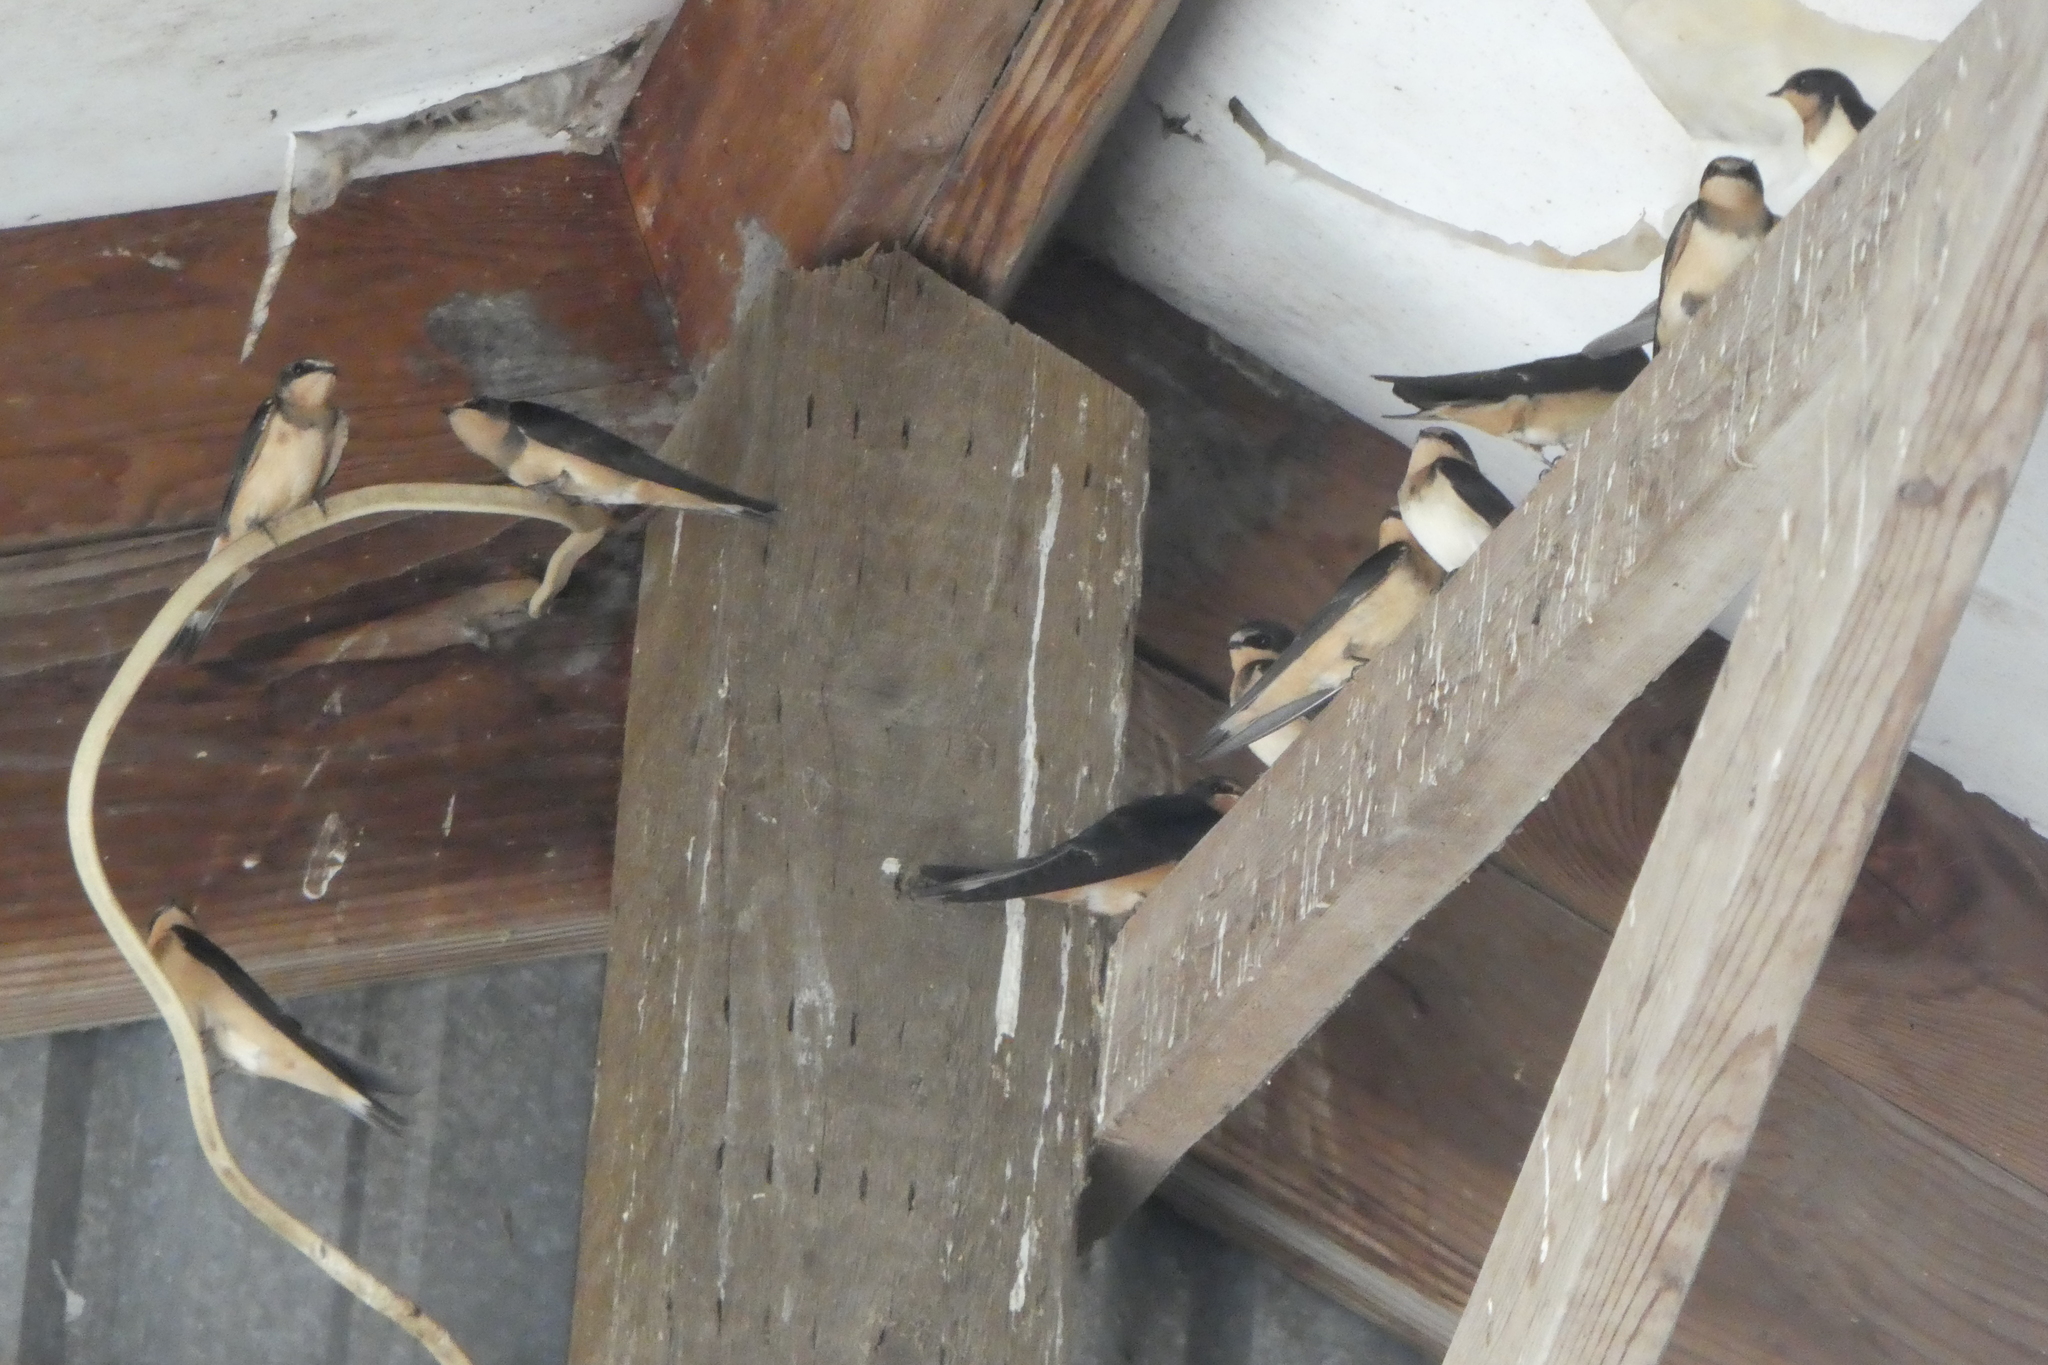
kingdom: Animalia
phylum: Chordata
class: Aves
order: Passeriformes
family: Hirundinidae
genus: Hirundo
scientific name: Hirundo rustica
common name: Barn swallow
